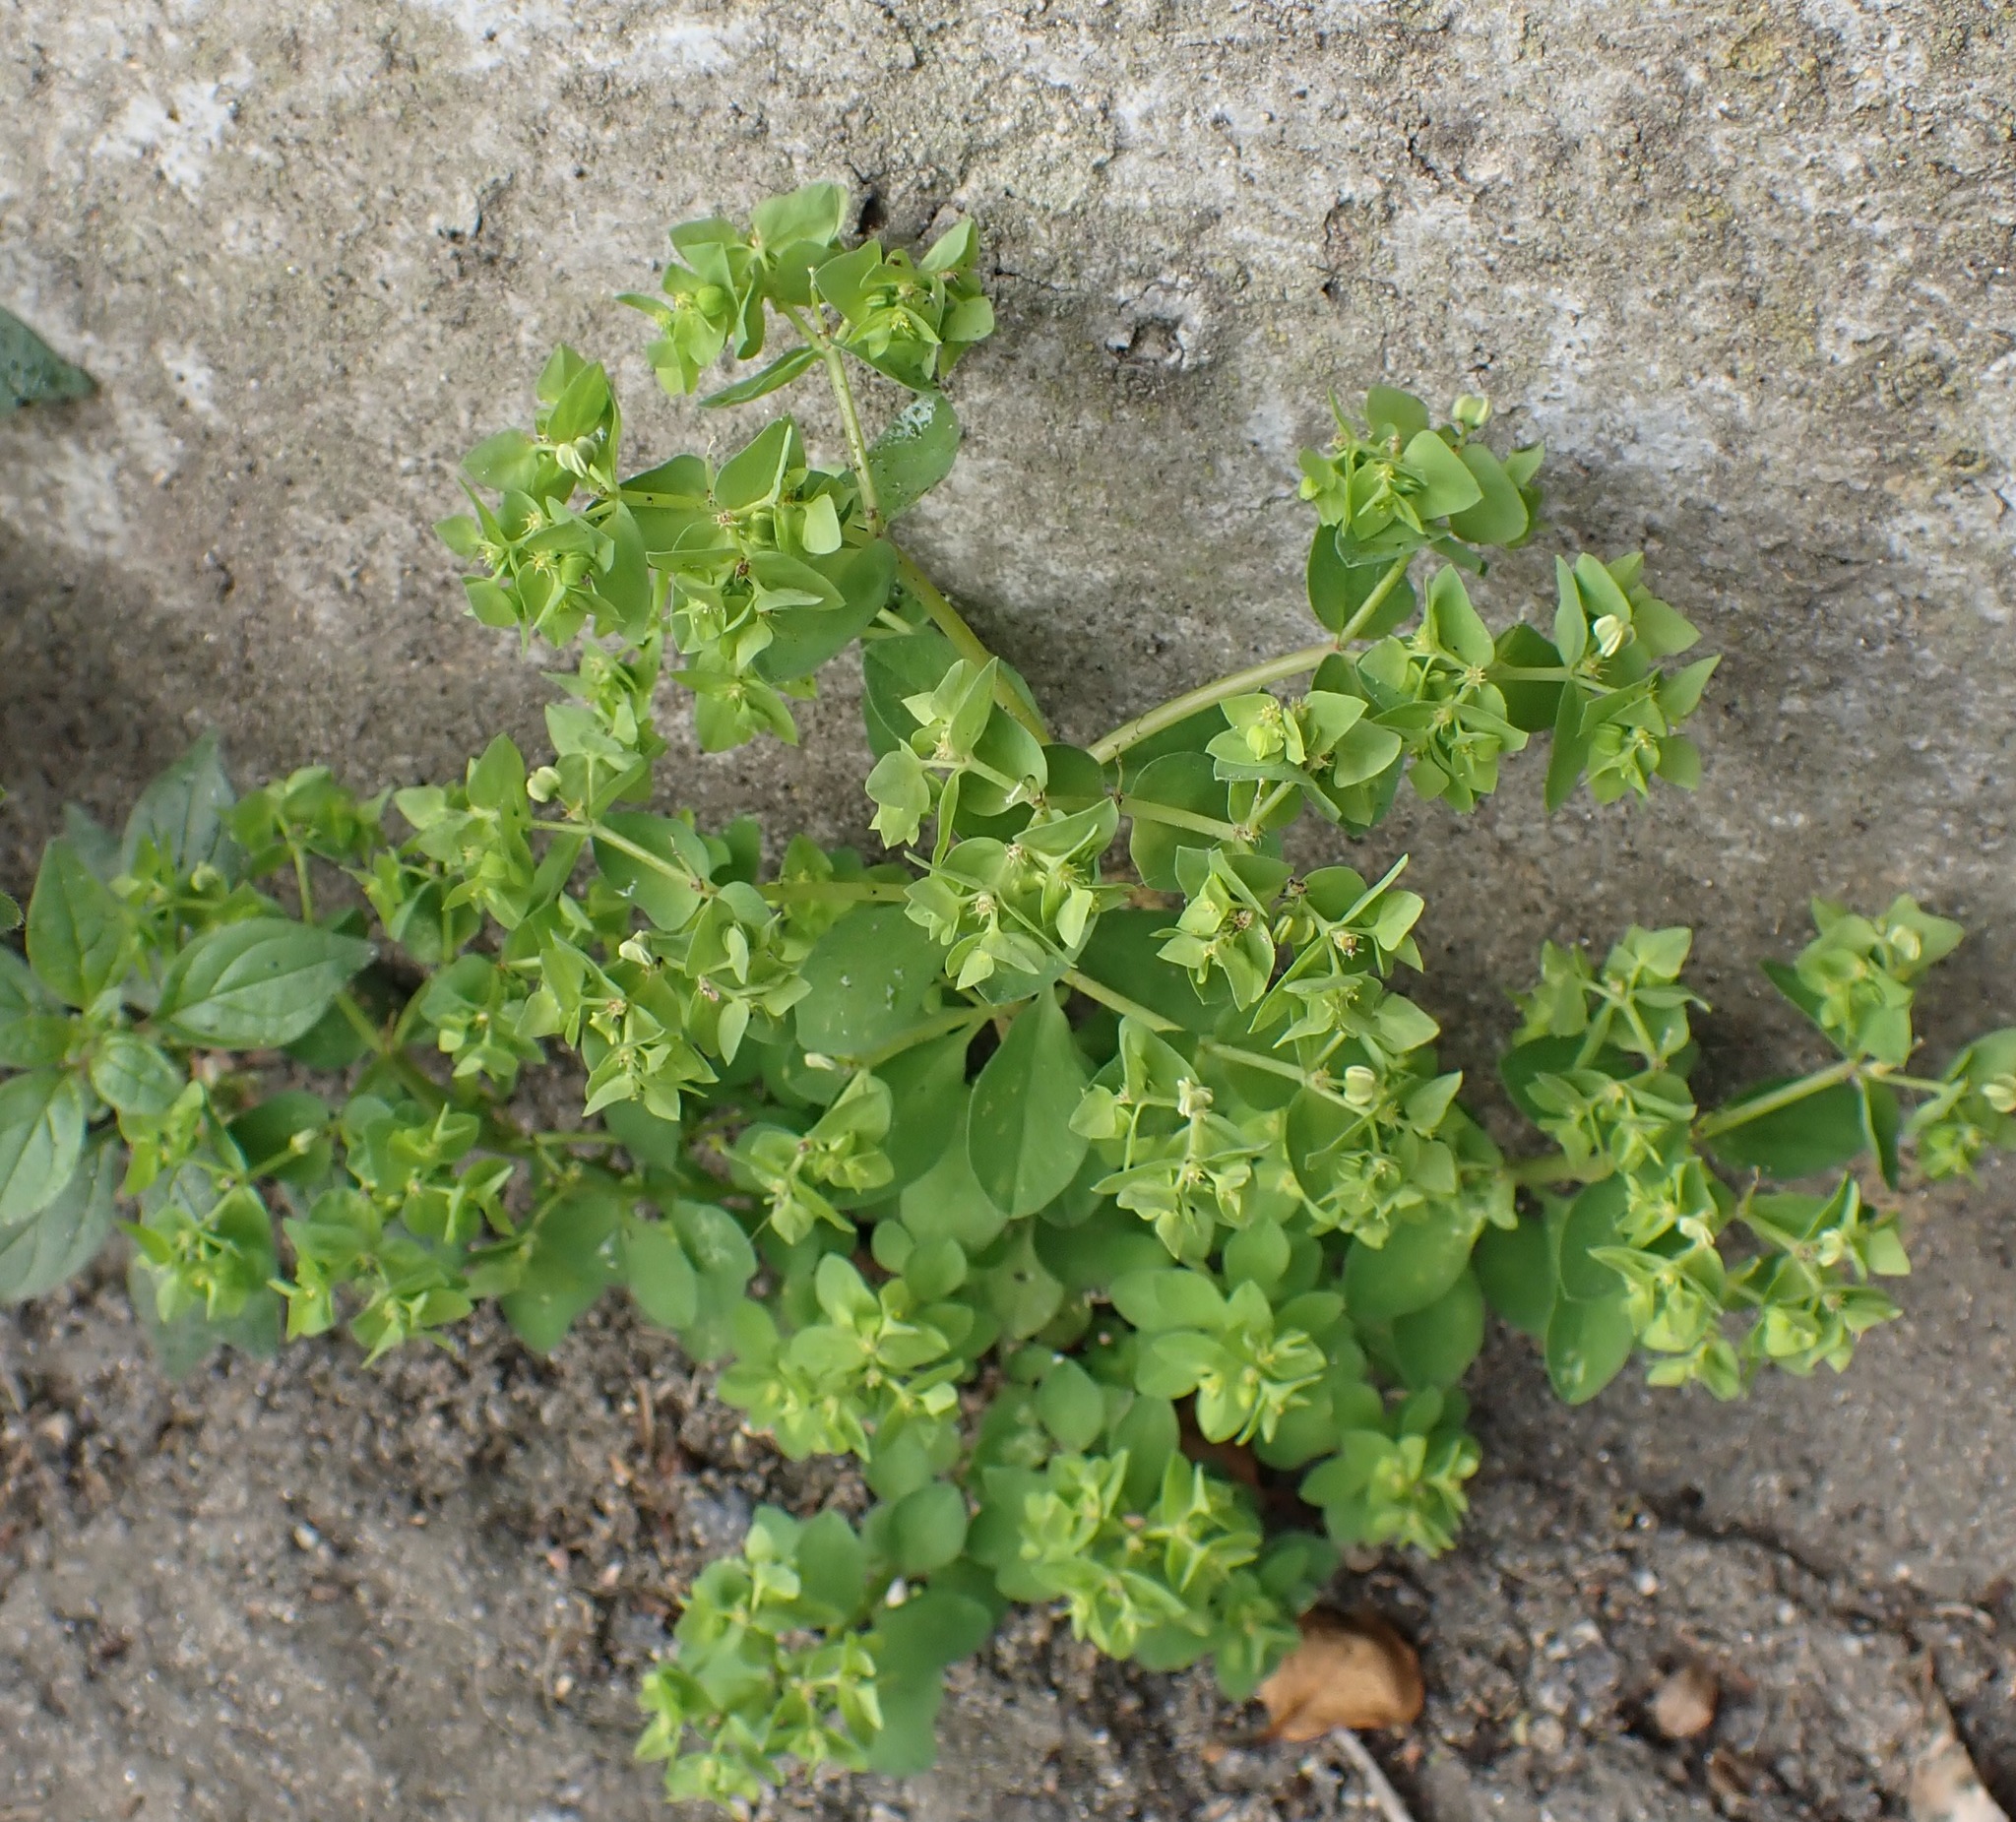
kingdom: Plantae
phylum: Tracheophyta
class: Magnoliopsida
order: Malpighiales
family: Euphorbiaceae
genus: Euphorbia
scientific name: Euphorbia peplus
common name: Petty spurge
